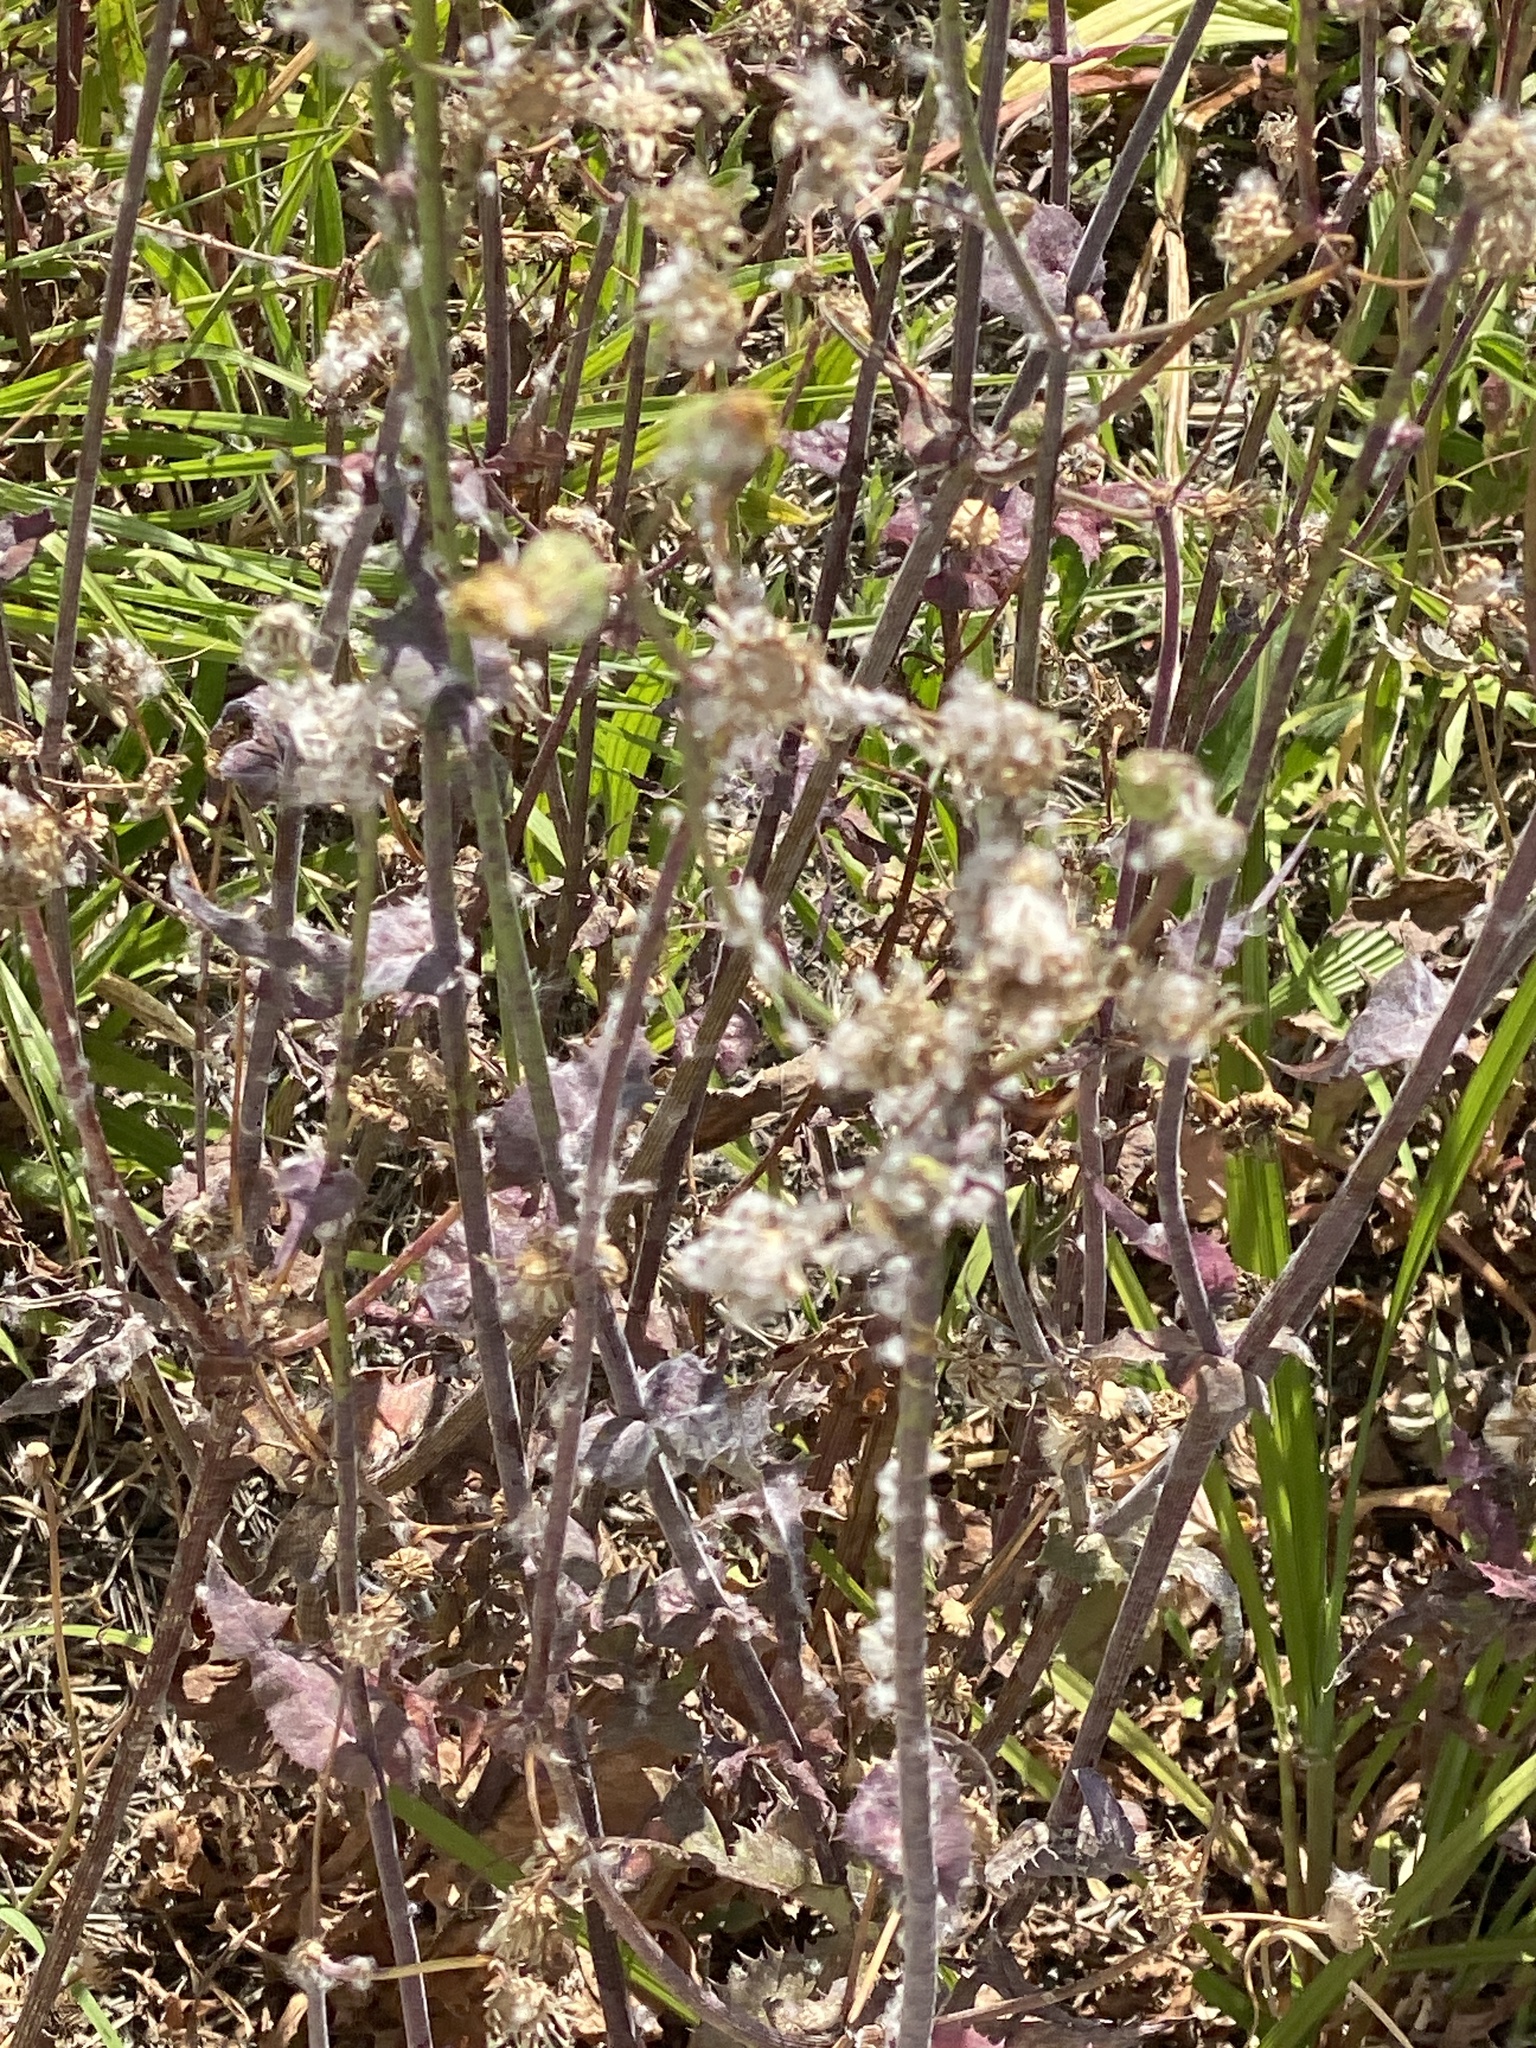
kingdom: Plantae
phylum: Tracheophyta
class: Magnoliopsida
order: Asterales
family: Asteraceae
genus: Sonchus
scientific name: Sonchus oleraceus
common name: Common sowthistle
